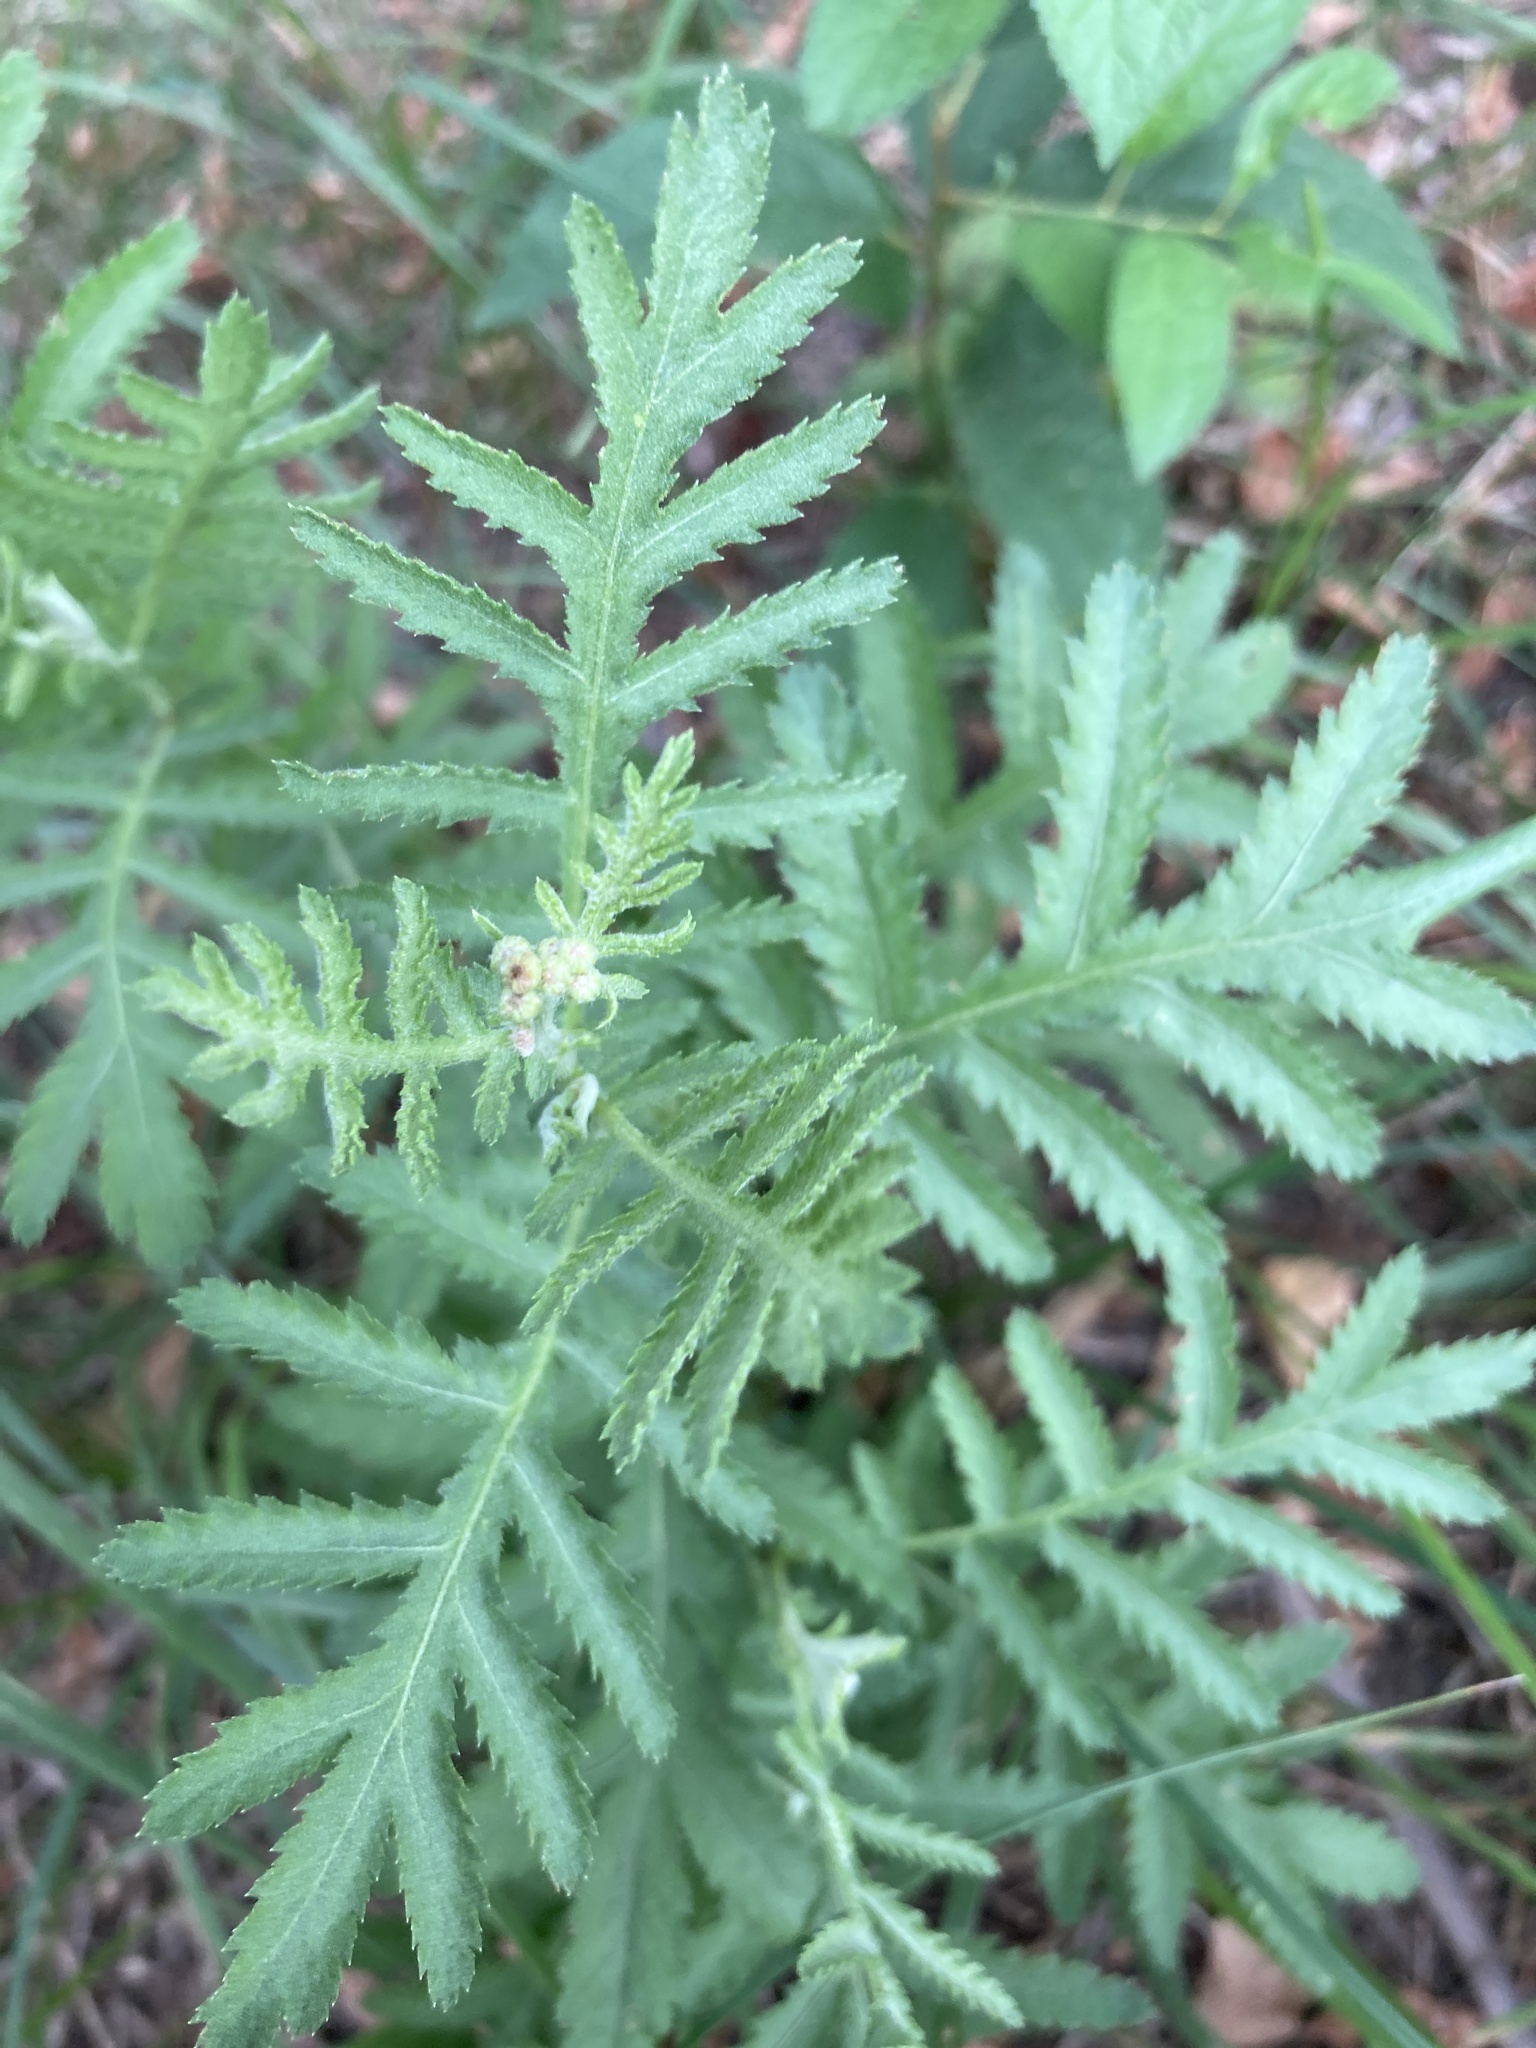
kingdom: Plantae
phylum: Tracheophyta
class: Magnoliopsida
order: Asterales
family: Asteraceae
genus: Tanacetum
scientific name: Tanacetum vulgare
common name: Common tansy
